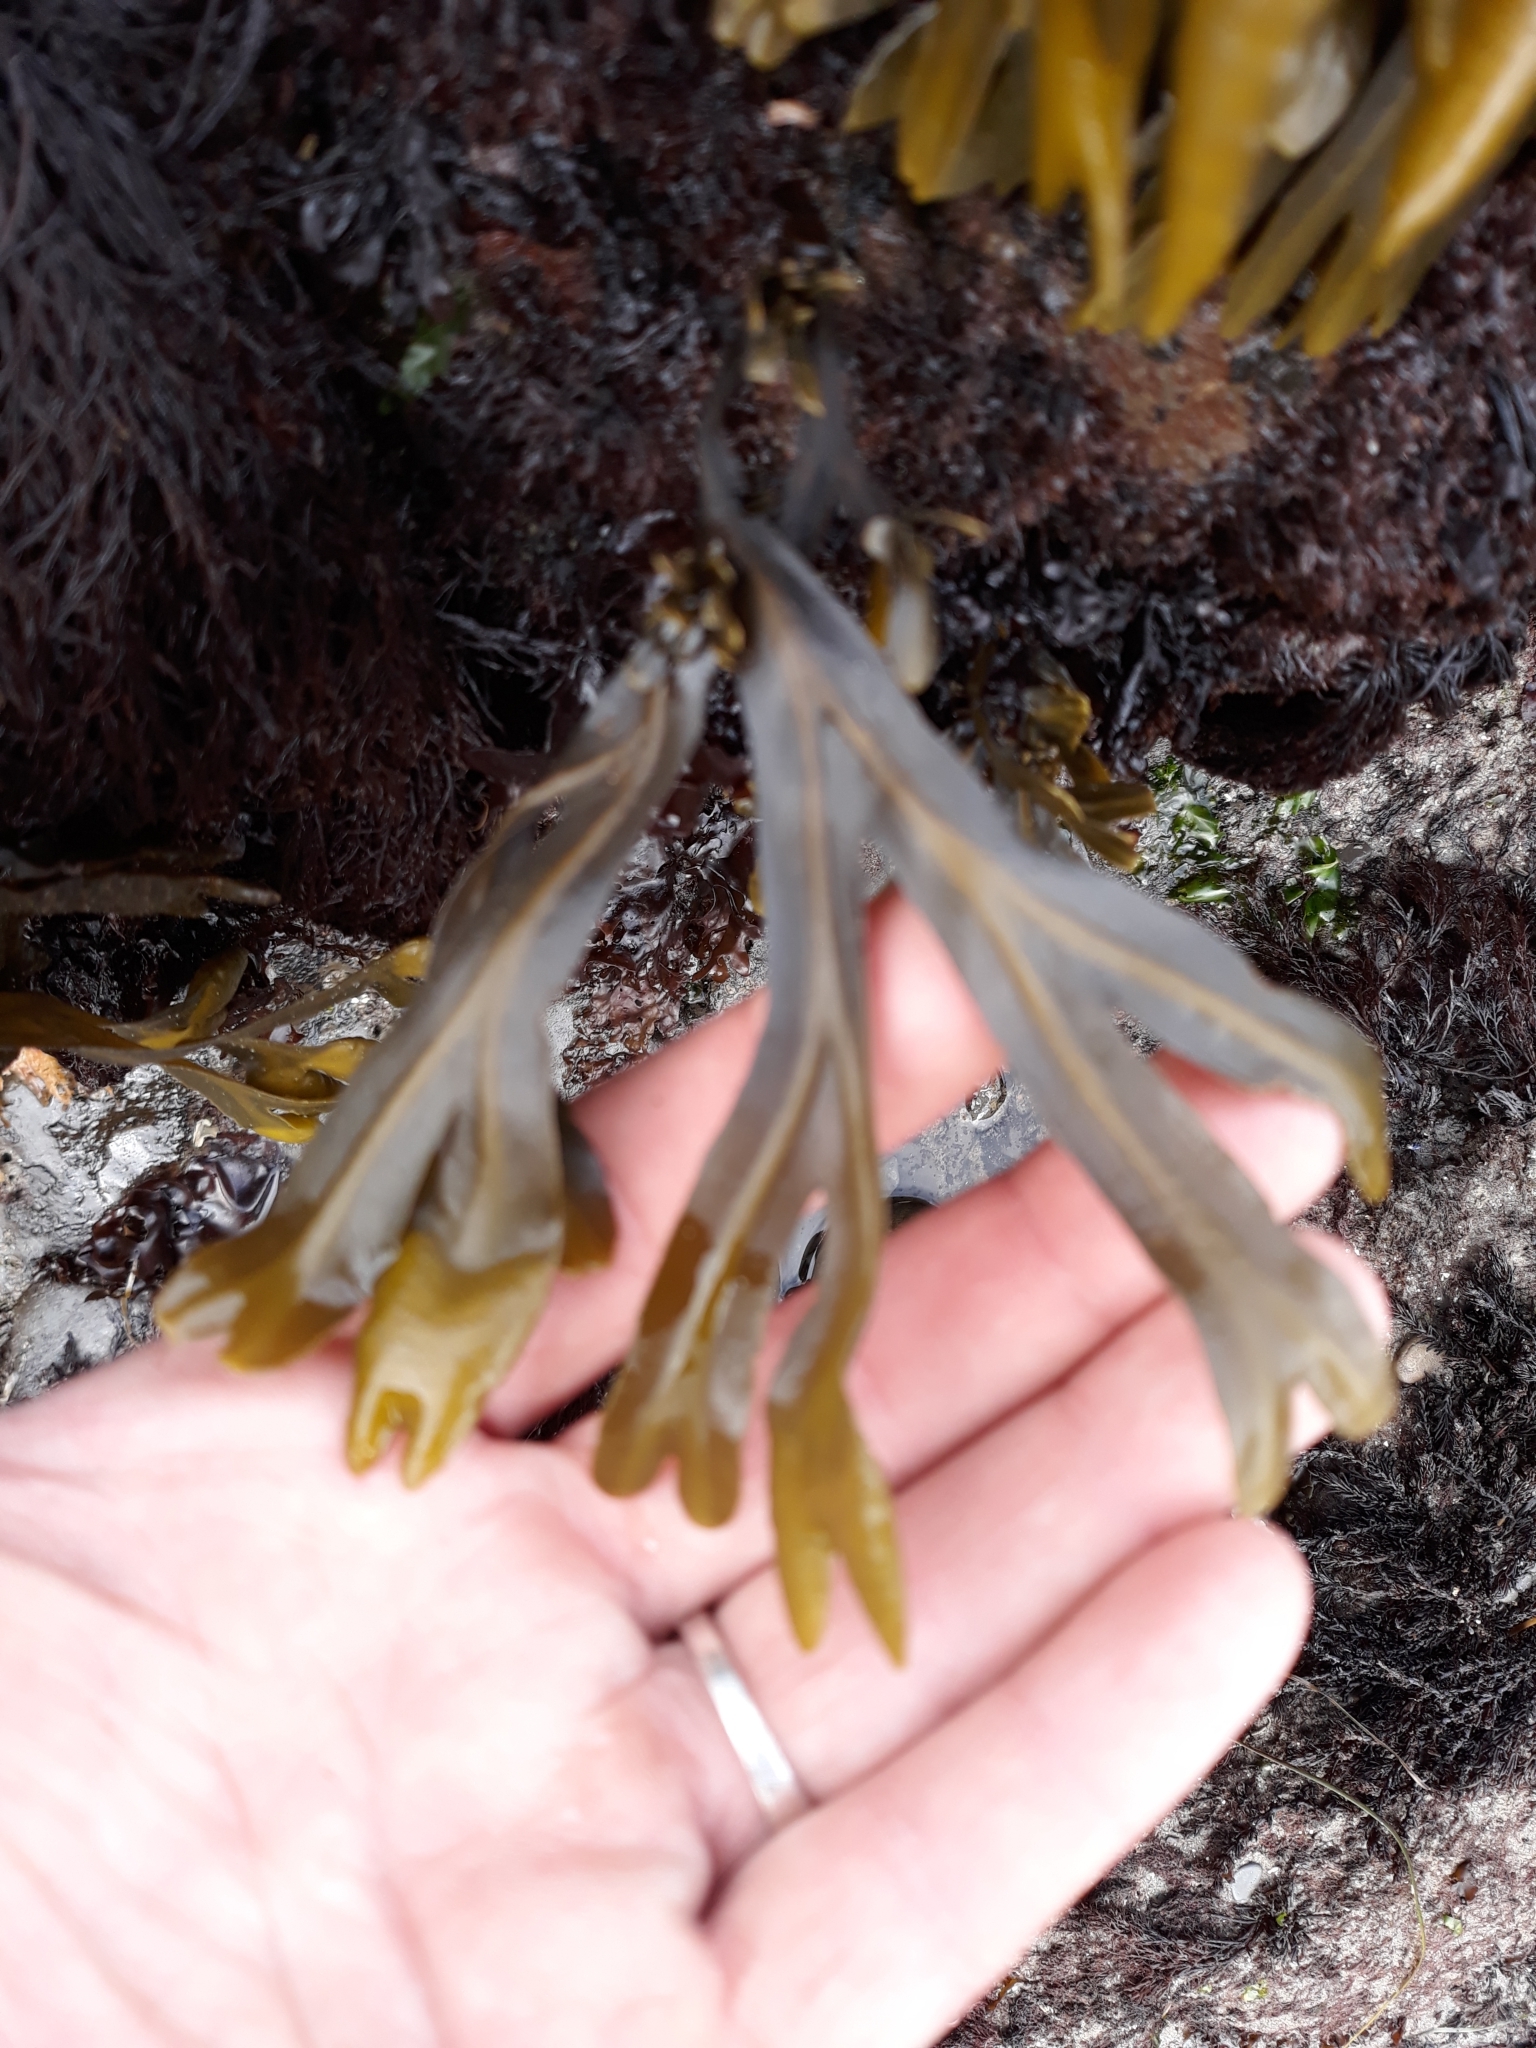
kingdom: Chromista
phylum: Ochrophyta
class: Phaeophyceae
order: Fucales
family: Fucaceae
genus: Fucus
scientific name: Fucus distichus
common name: Rockweed
